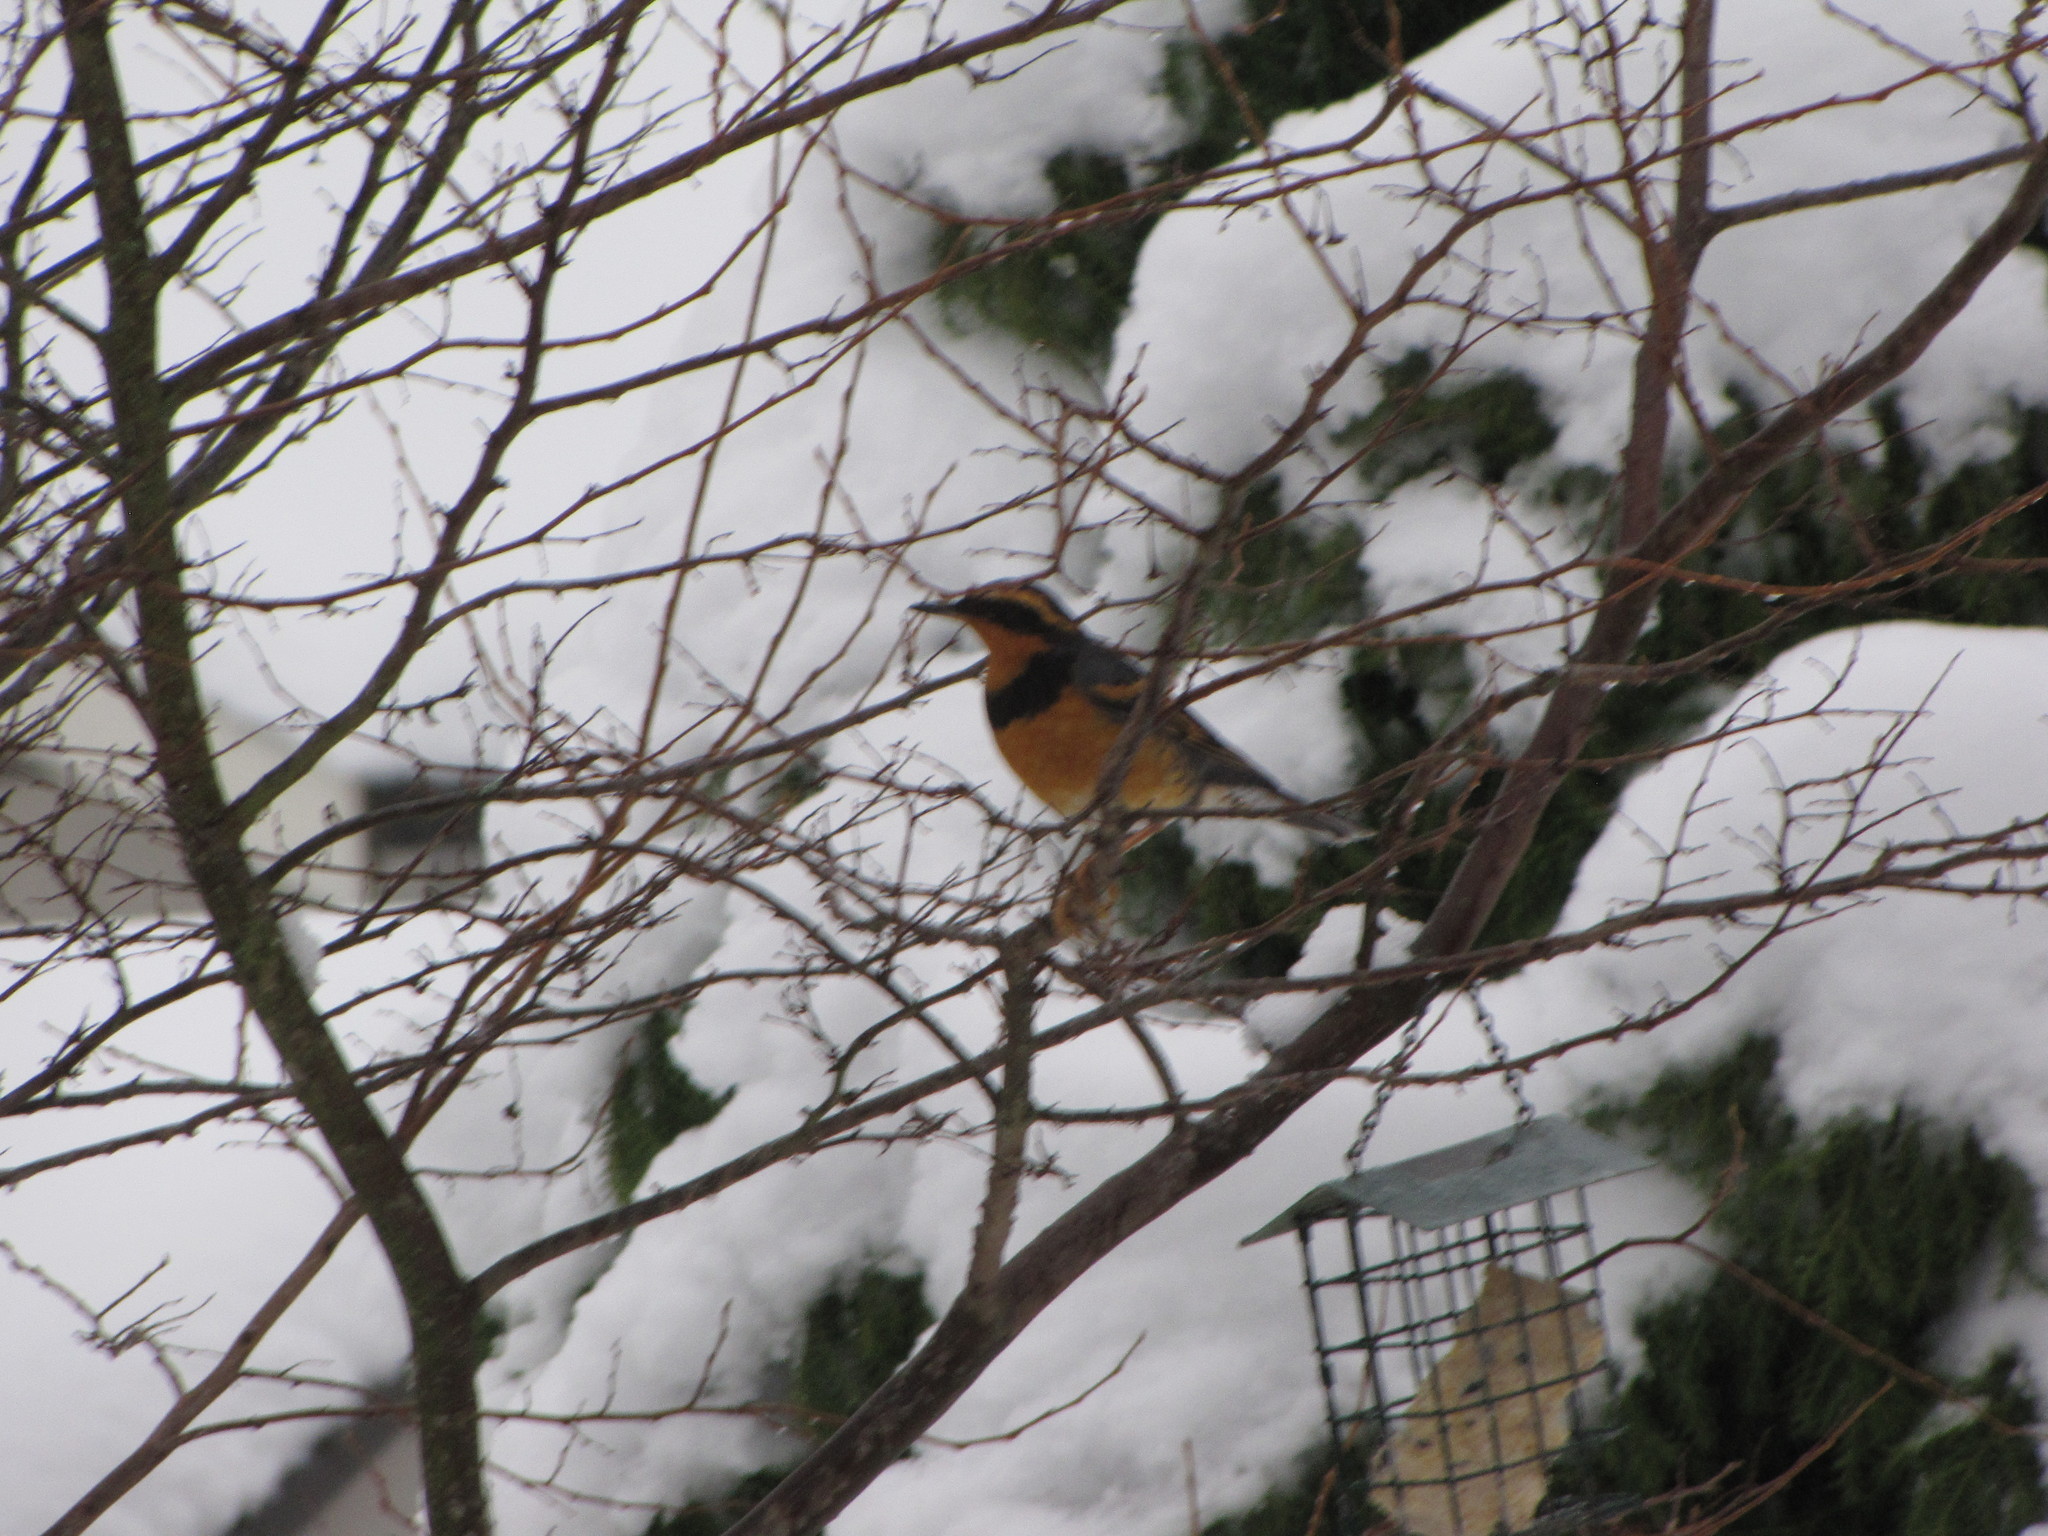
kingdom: Animalia
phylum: Chordata
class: Aves
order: Passeriformes
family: Turdidae
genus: Ixoreus
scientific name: Ixoreus naevius
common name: Varied thrush
